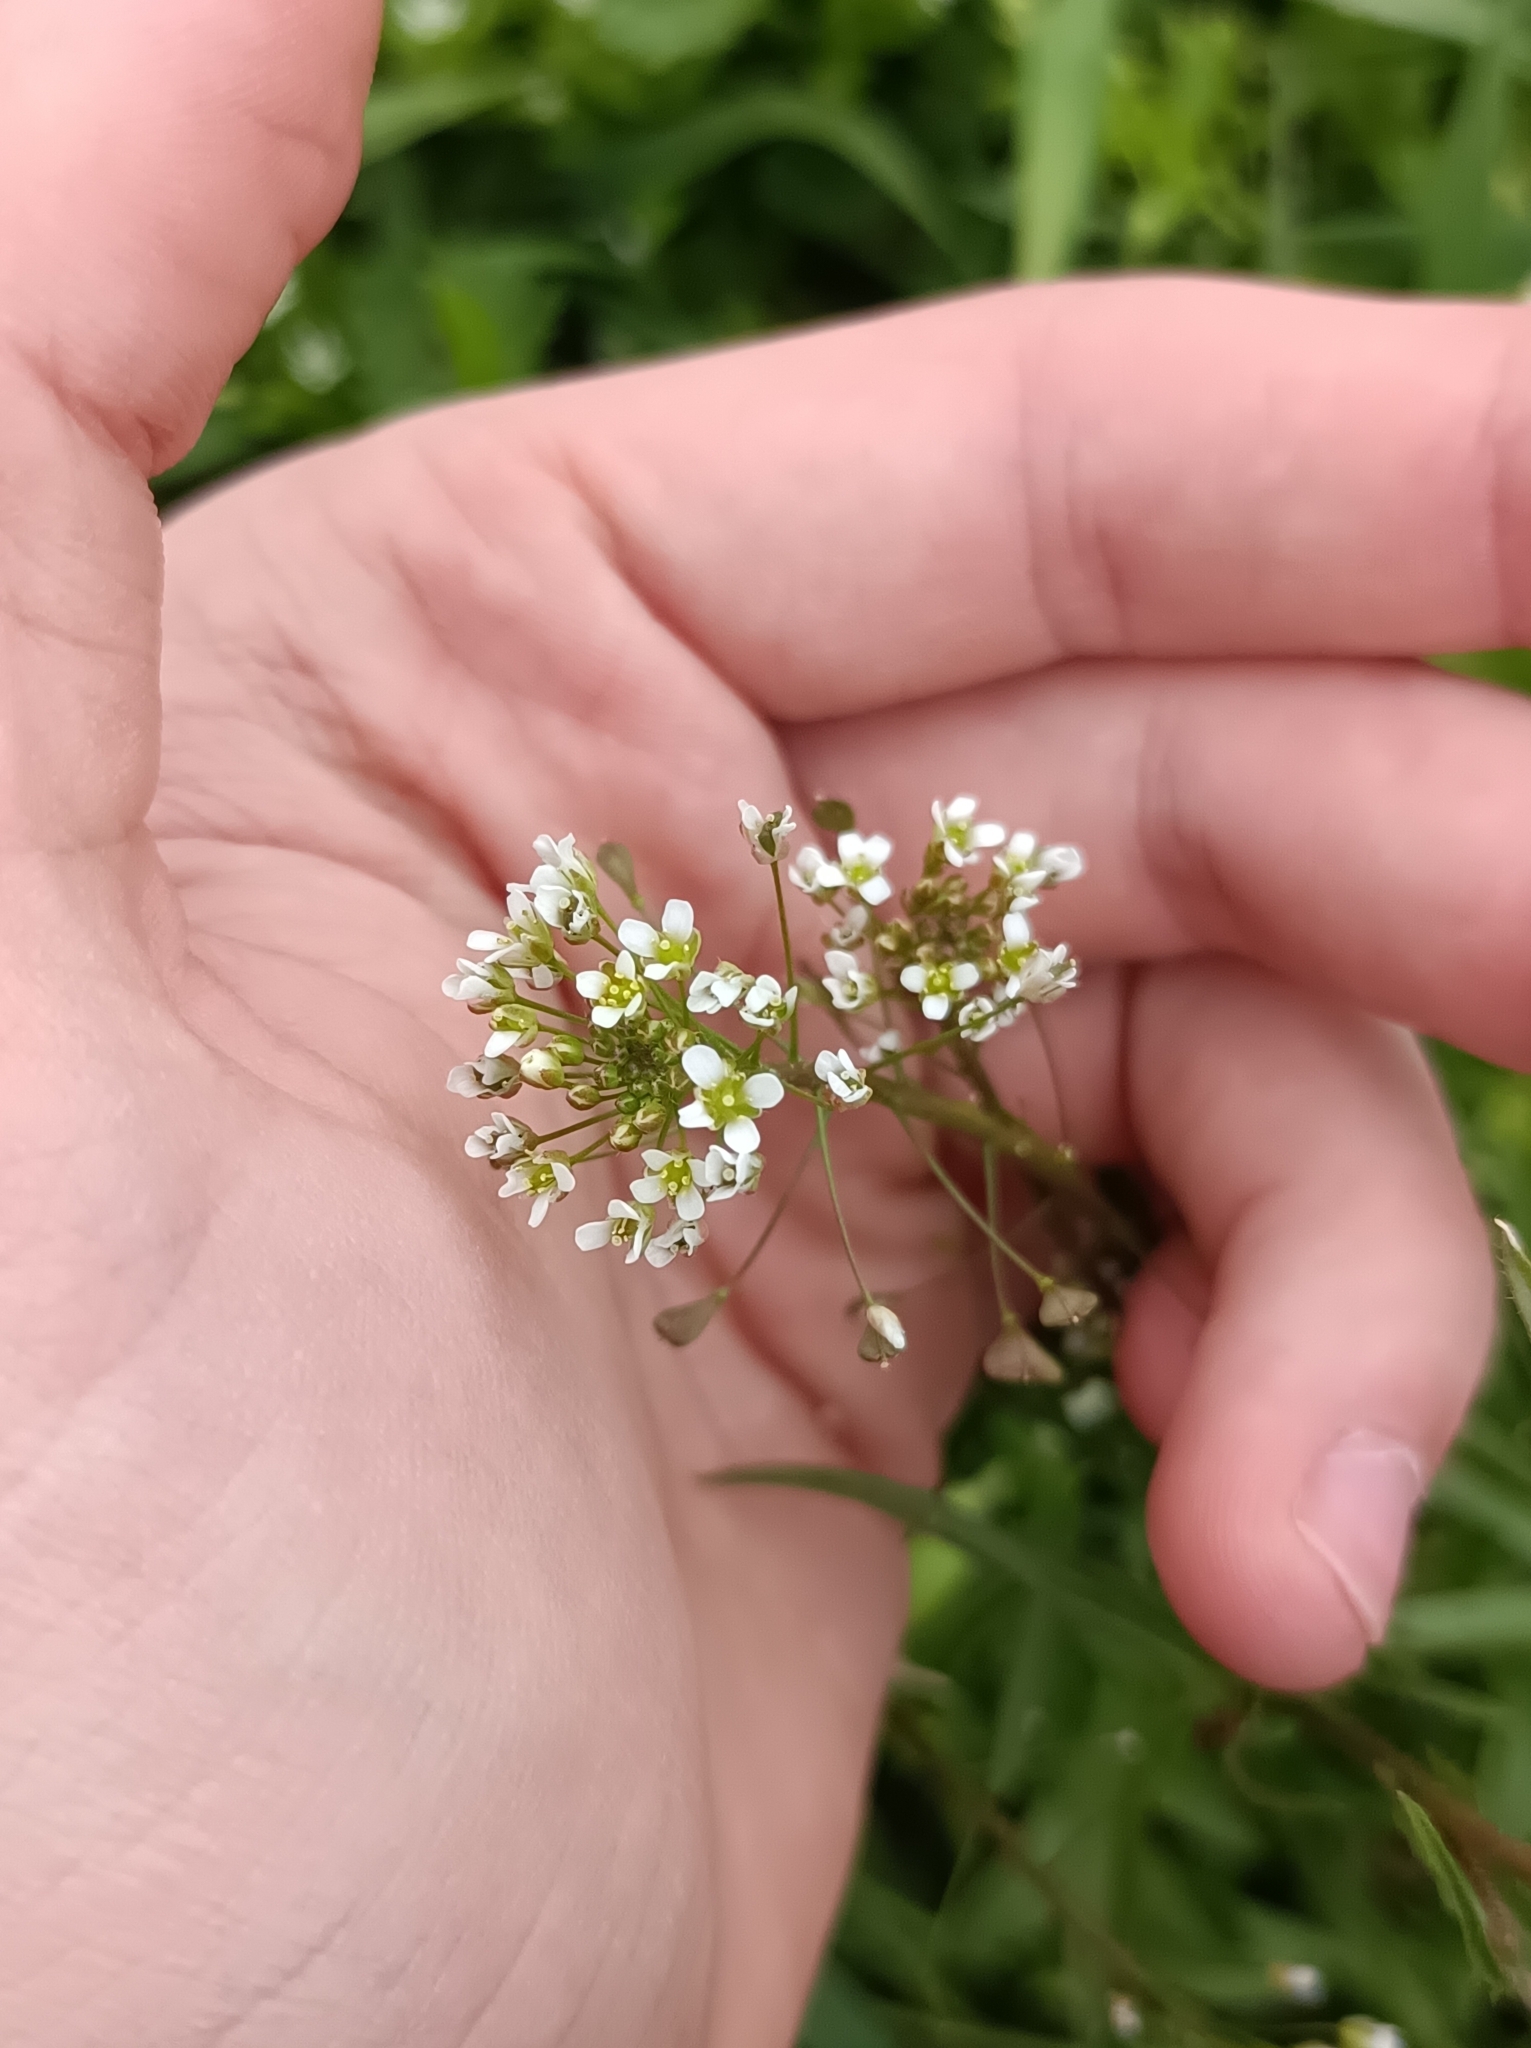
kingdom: Plantae
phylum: Tracheophyta
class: Magnoliopsida
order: Brassicales
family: Brassicaceae
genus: Capsella
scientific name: Capsella bursa-pastoris
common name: Shepherd's purse
